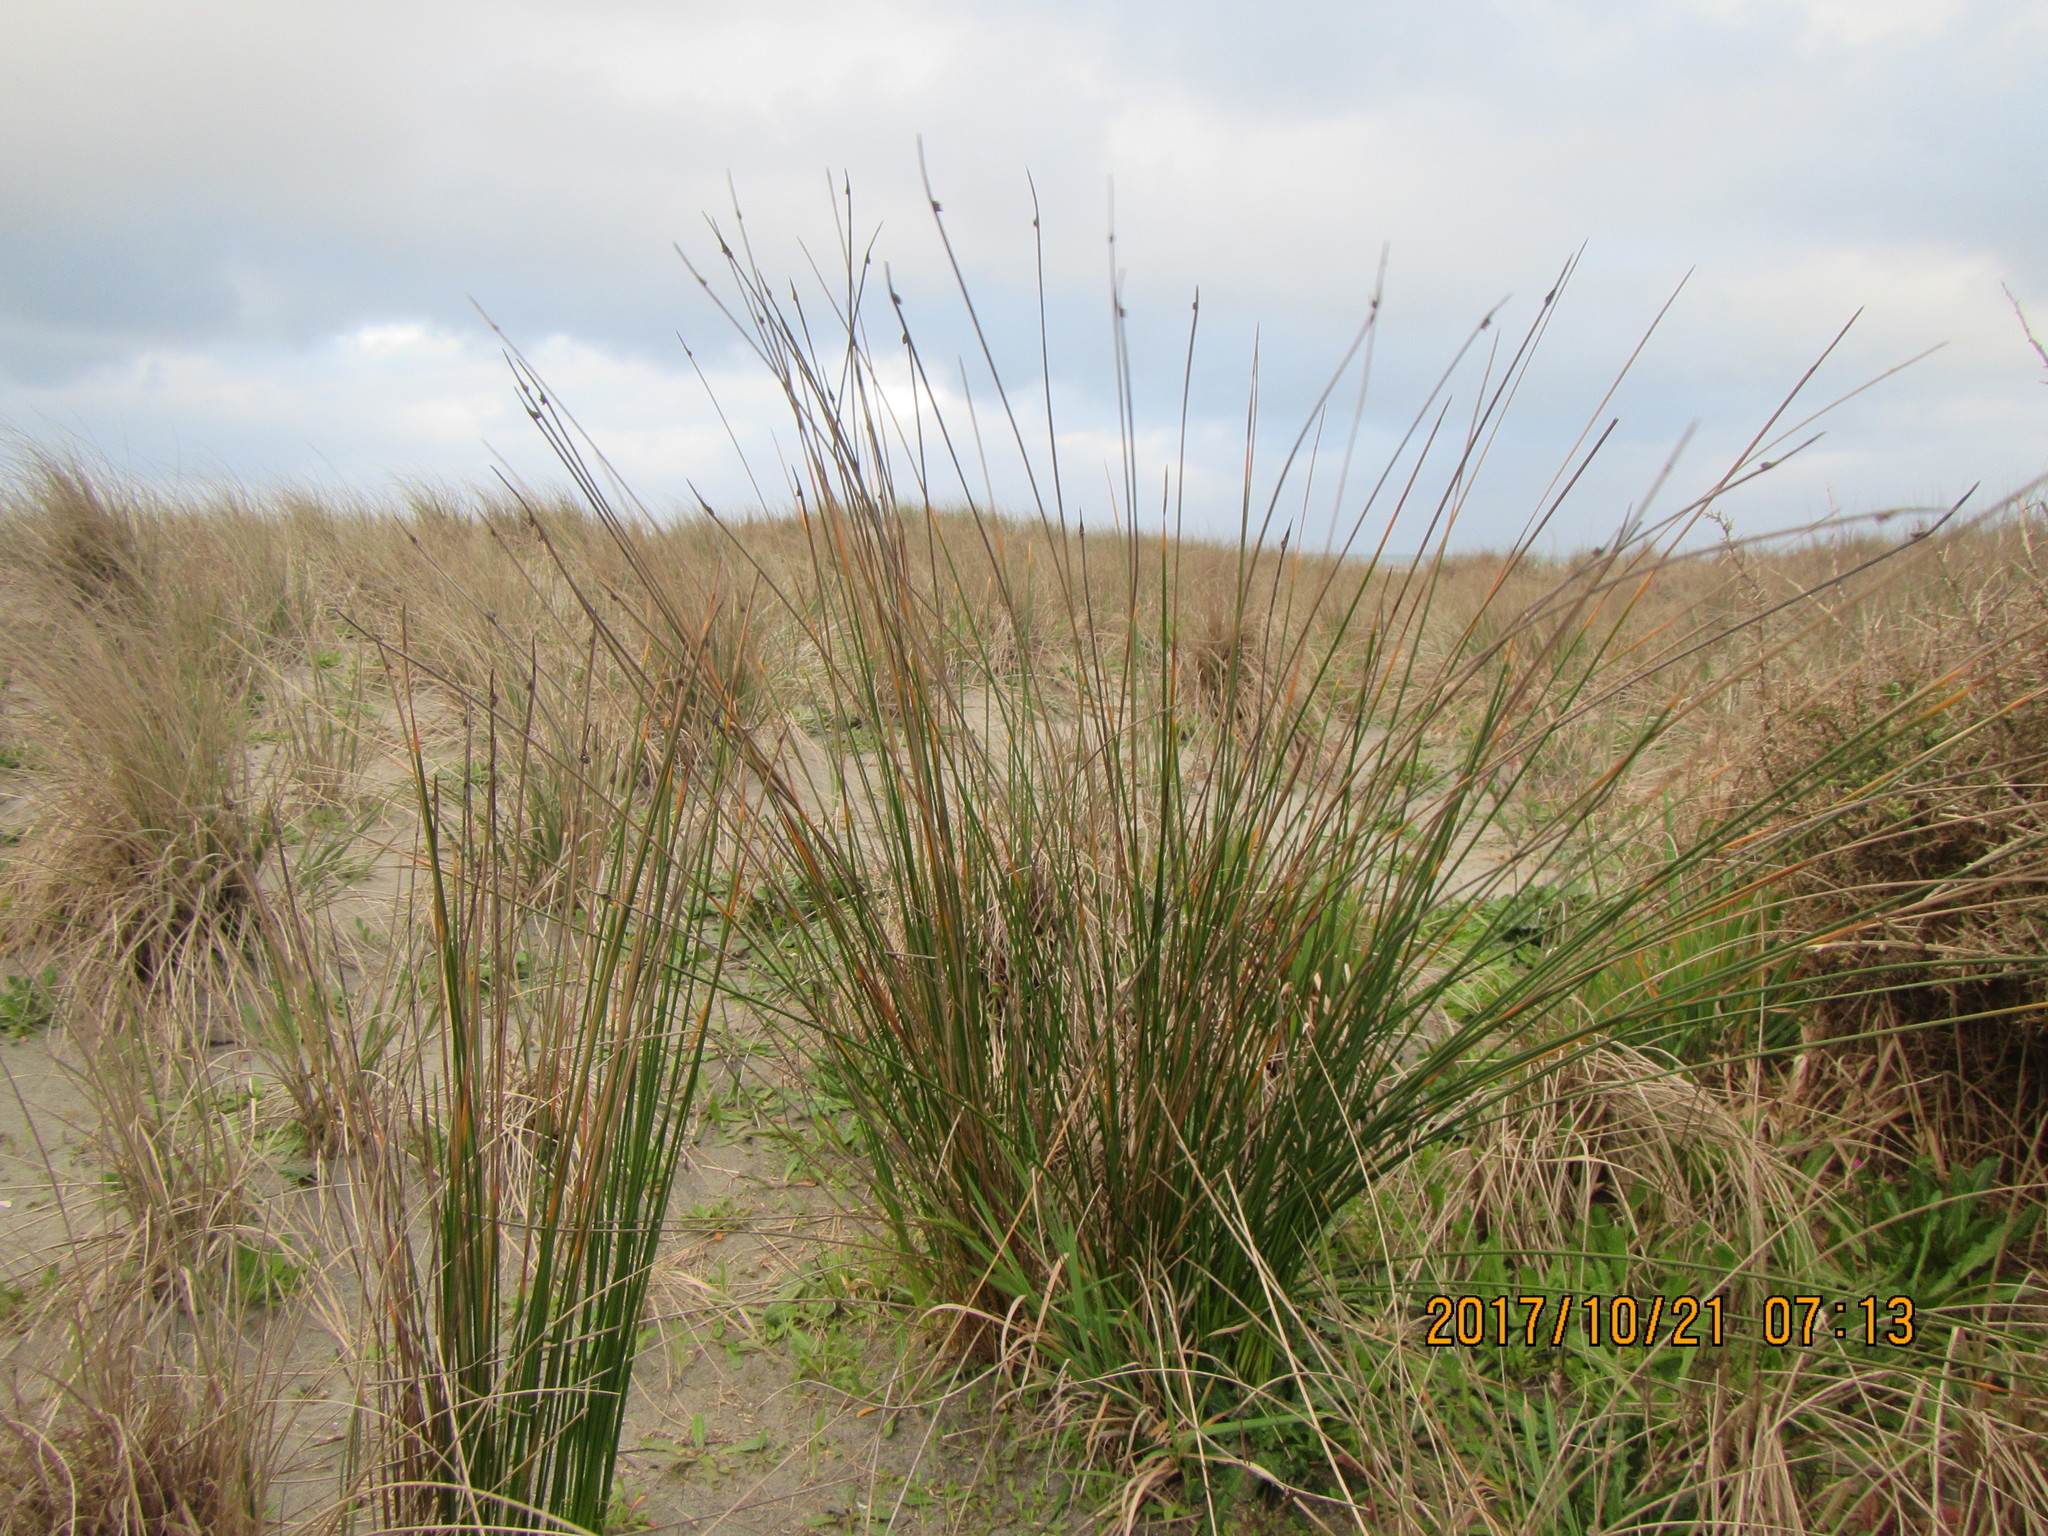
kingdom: Plantae
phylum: Tracheophyta
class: Liliopsida
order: Poales
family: Cyperaceae
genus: Ficinia
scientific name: Ficinia nodosa
